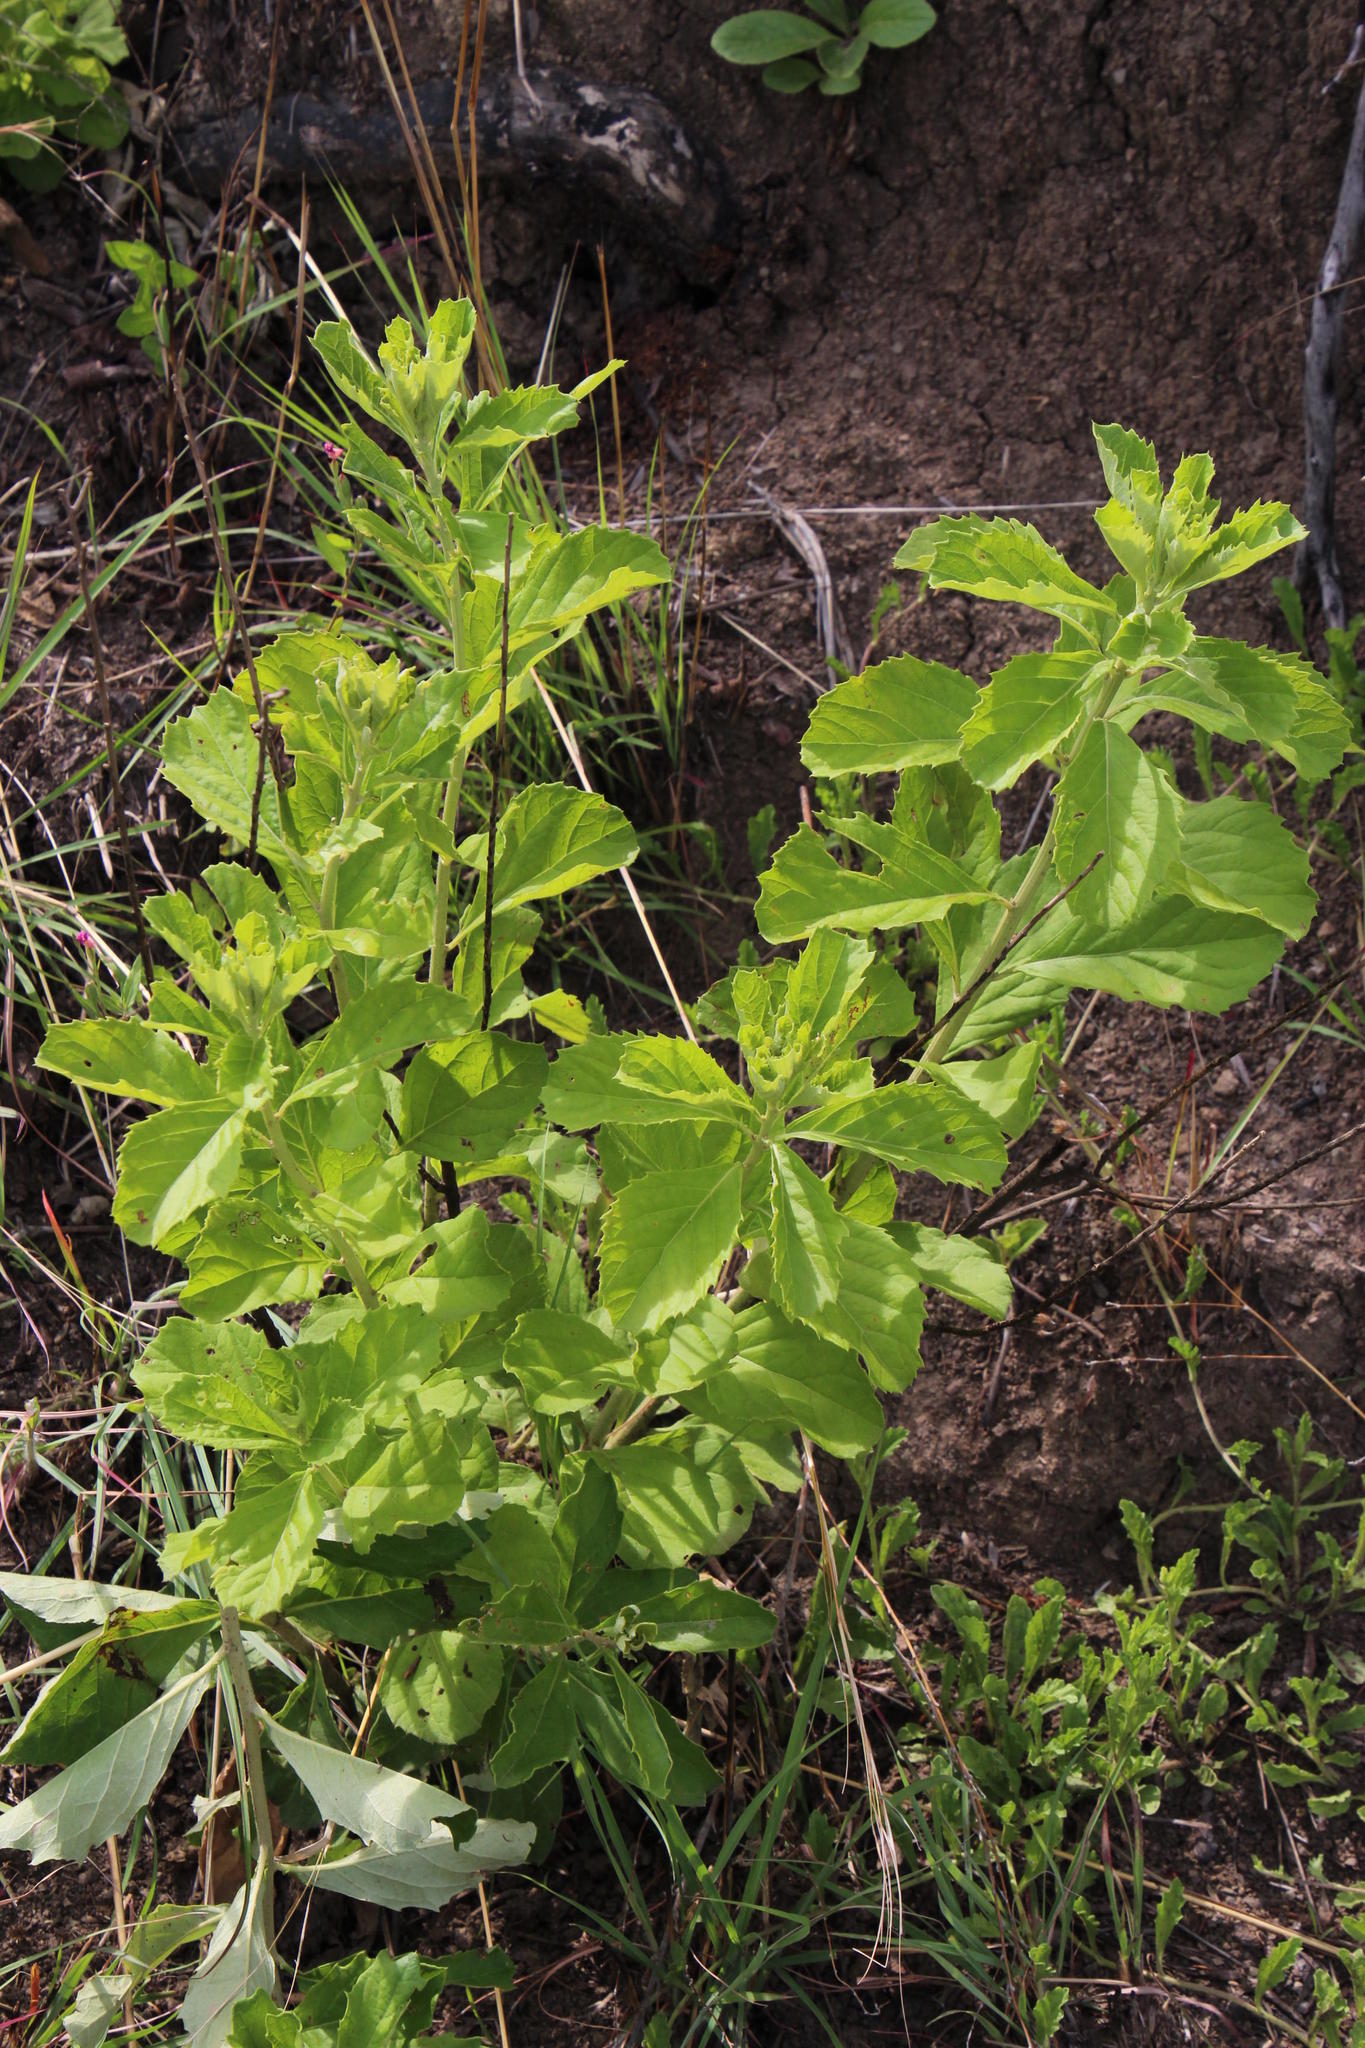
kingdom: Plantae
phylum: Tracheophyta
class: Magnoliopsida
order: Asterales
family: Asteraceae
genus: Gymnanthemum
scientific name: Gymnanthemum corymbosum
